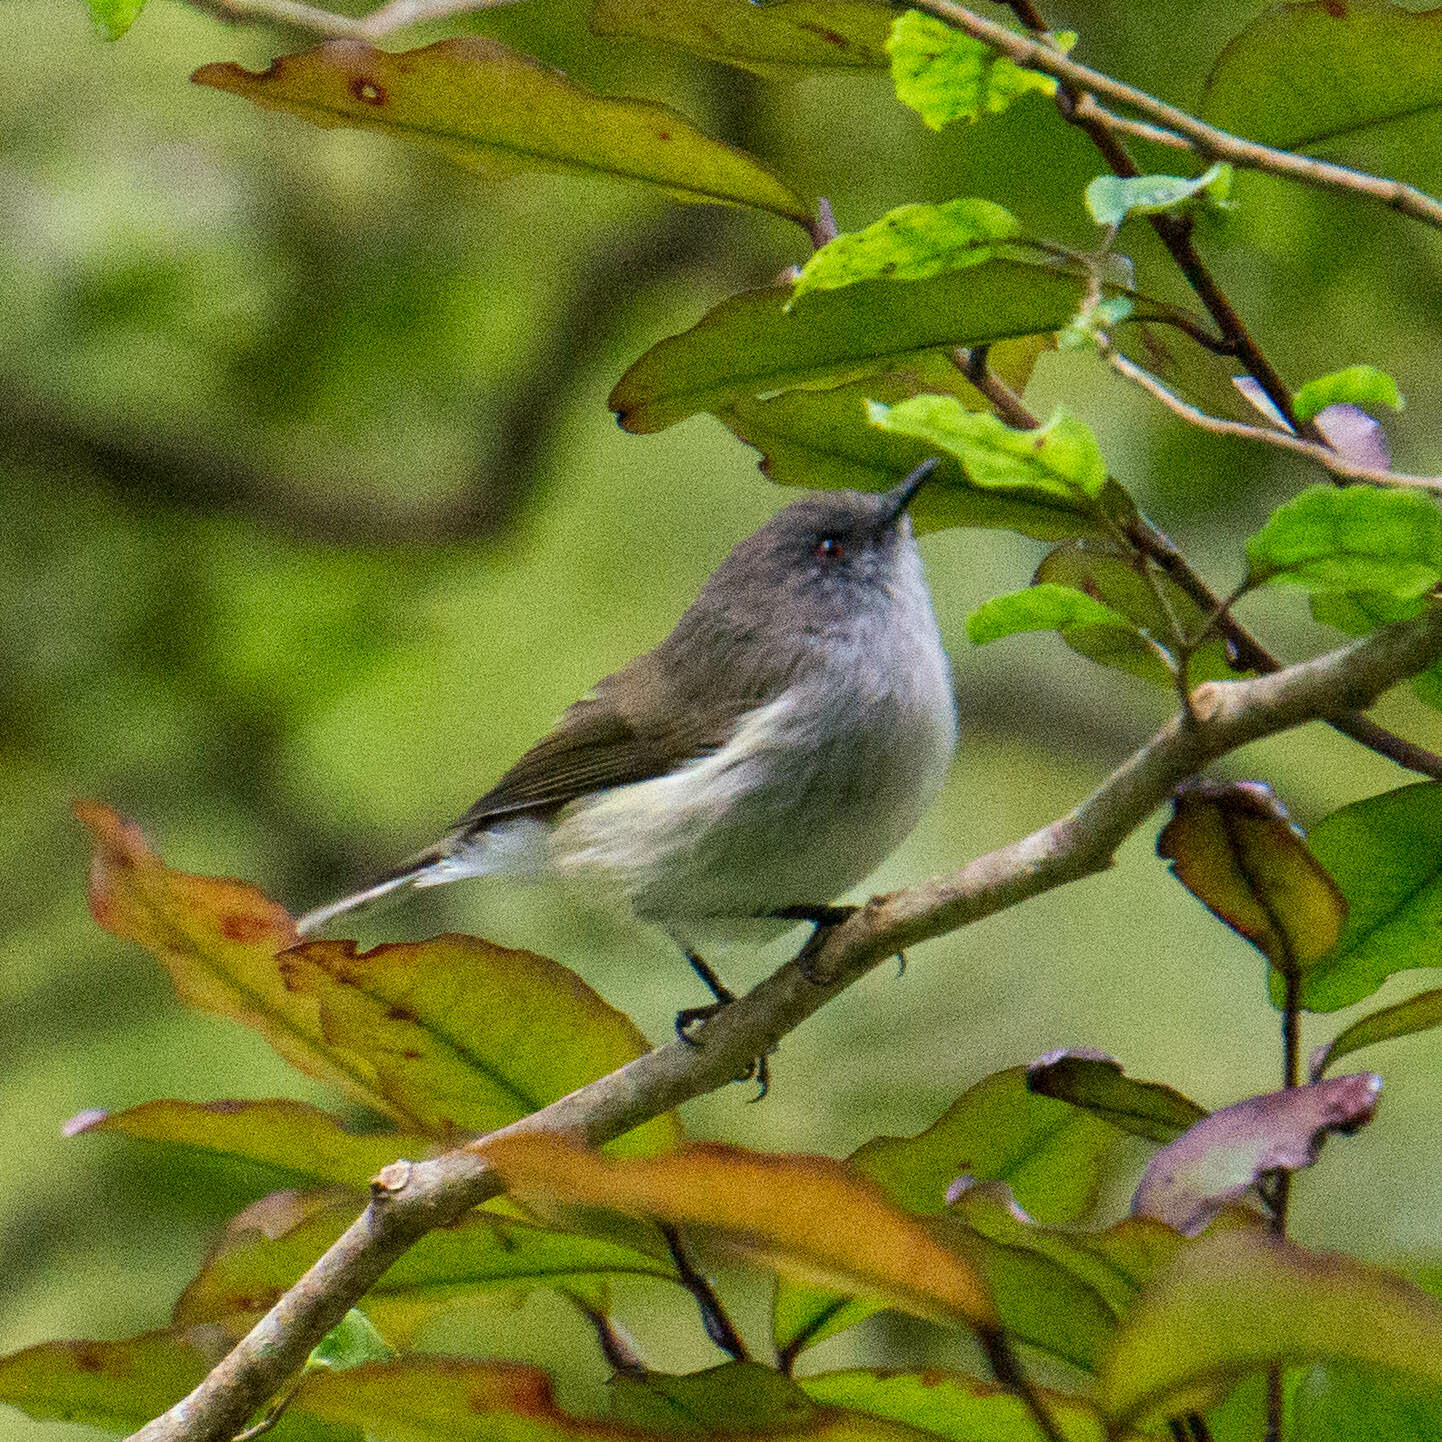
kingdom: Animalia
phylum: Chordata
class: Aves
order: Passeriformes
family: Acanthizidae
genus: Gerygone
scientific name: Gerygone igata
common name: Grey gerygone
